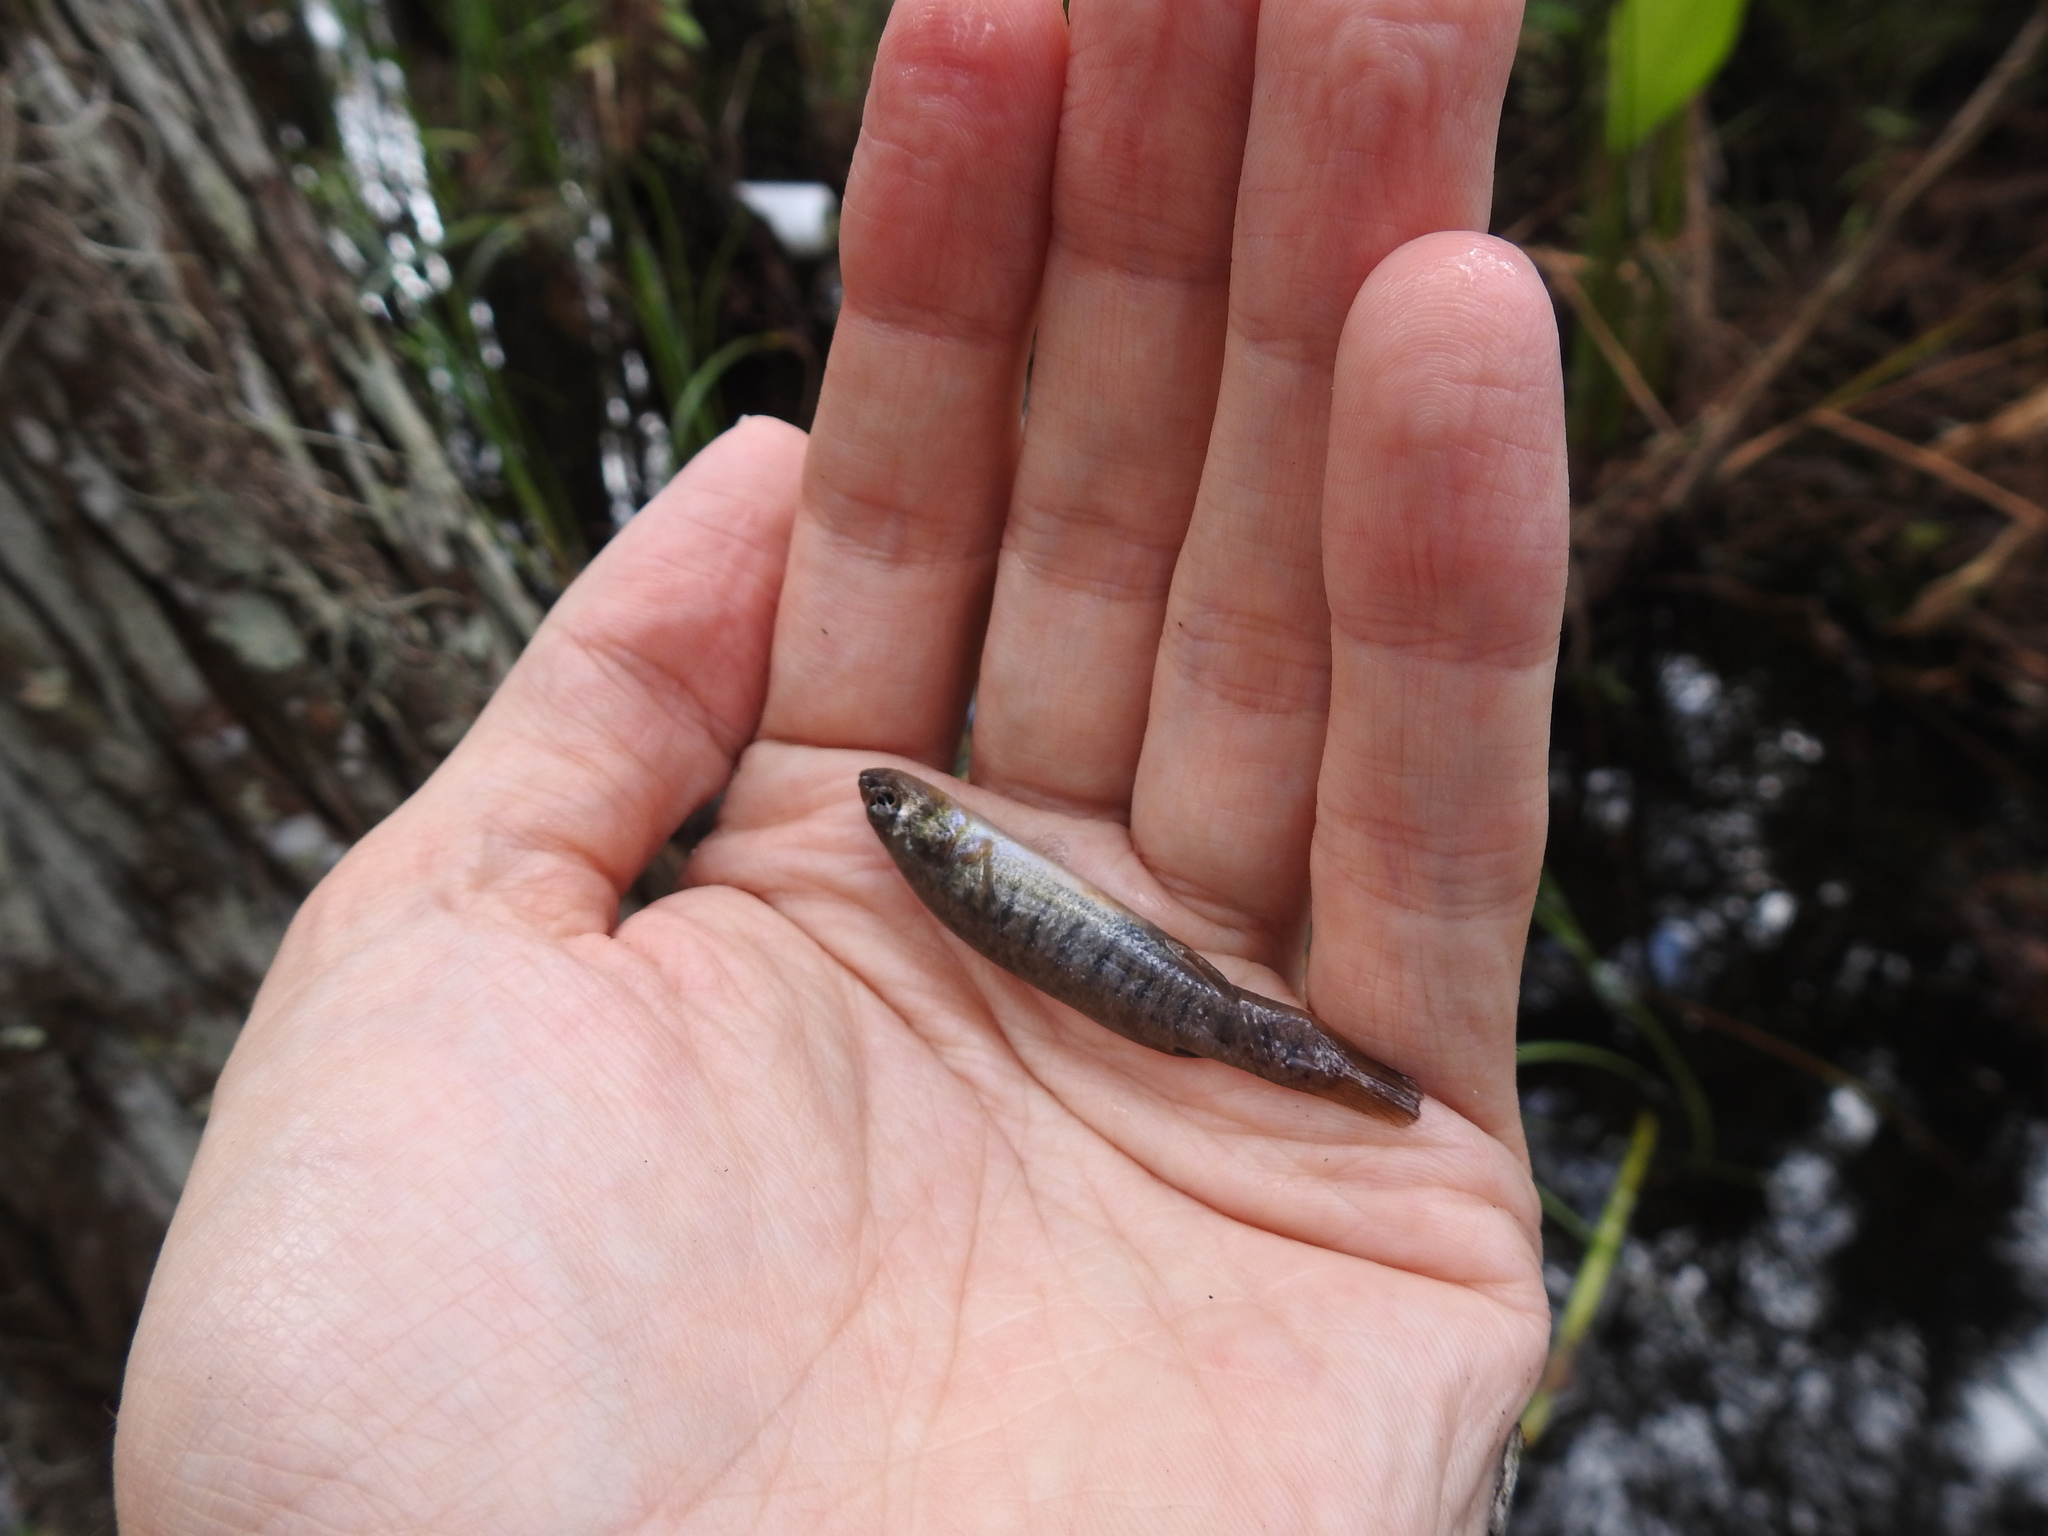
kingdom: Animalia
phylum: Chordata
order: Cyprinodontiformes
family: Fundulidae
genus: Fundulus
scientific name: Fundulus confluentus
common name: Killifish
